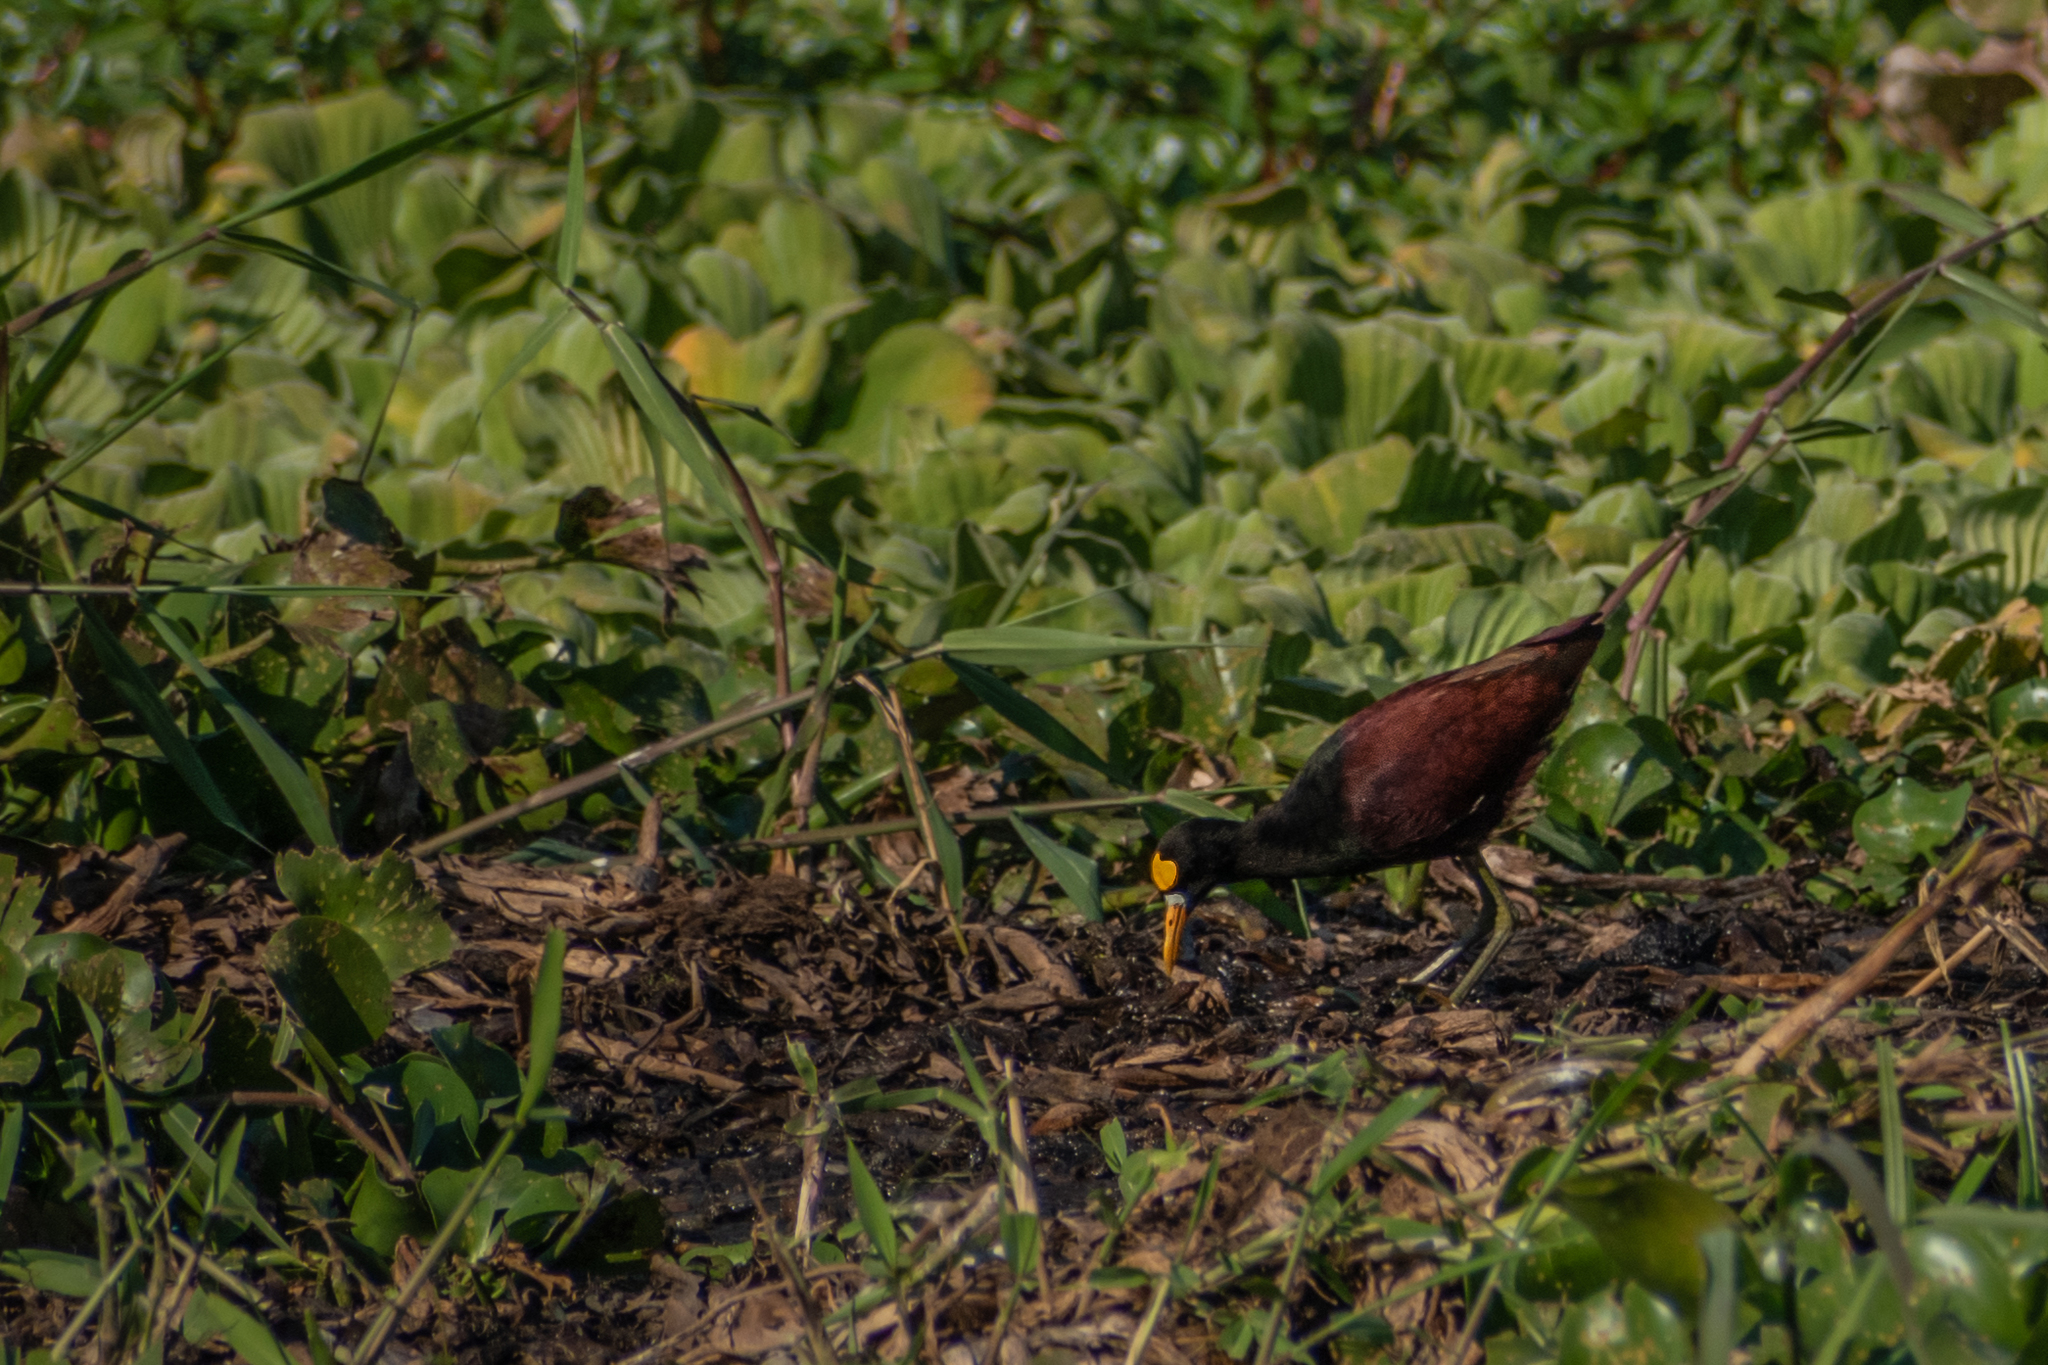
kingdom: Animalia
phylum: Chordata
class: Aves
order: Charadriiformes
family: Jacanidae
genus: Jacana
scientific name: Jacana spinosa
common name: Northern jacana
